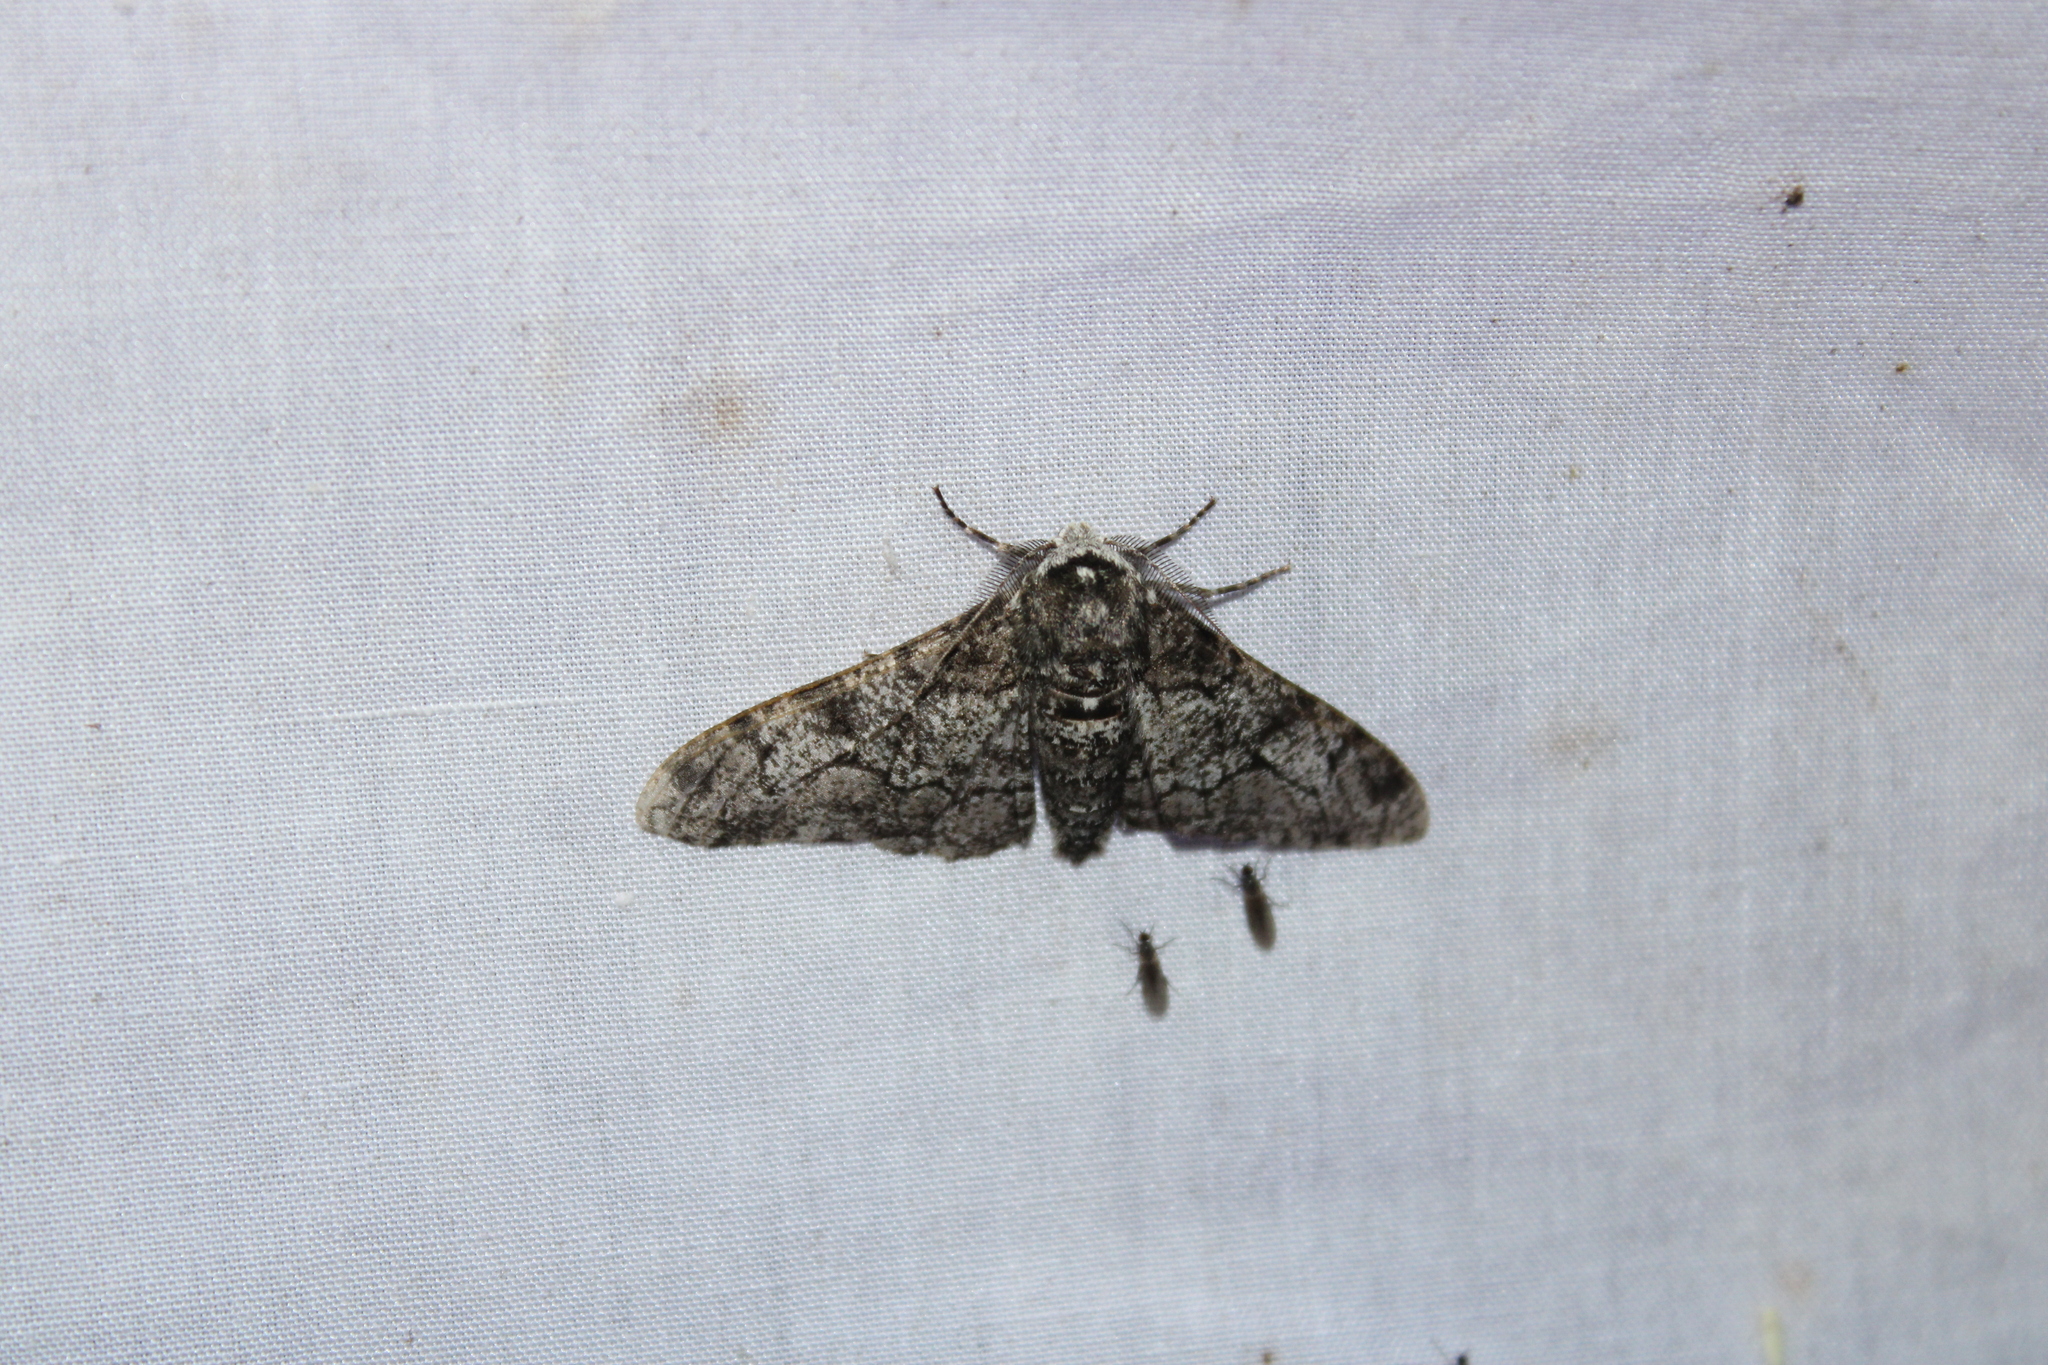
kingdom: Animalia
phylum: Arthropoda
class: Insecta
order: Lepidoptera
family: Geometridae
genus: Biston
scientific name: Biston betularia
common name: Peppered moth
